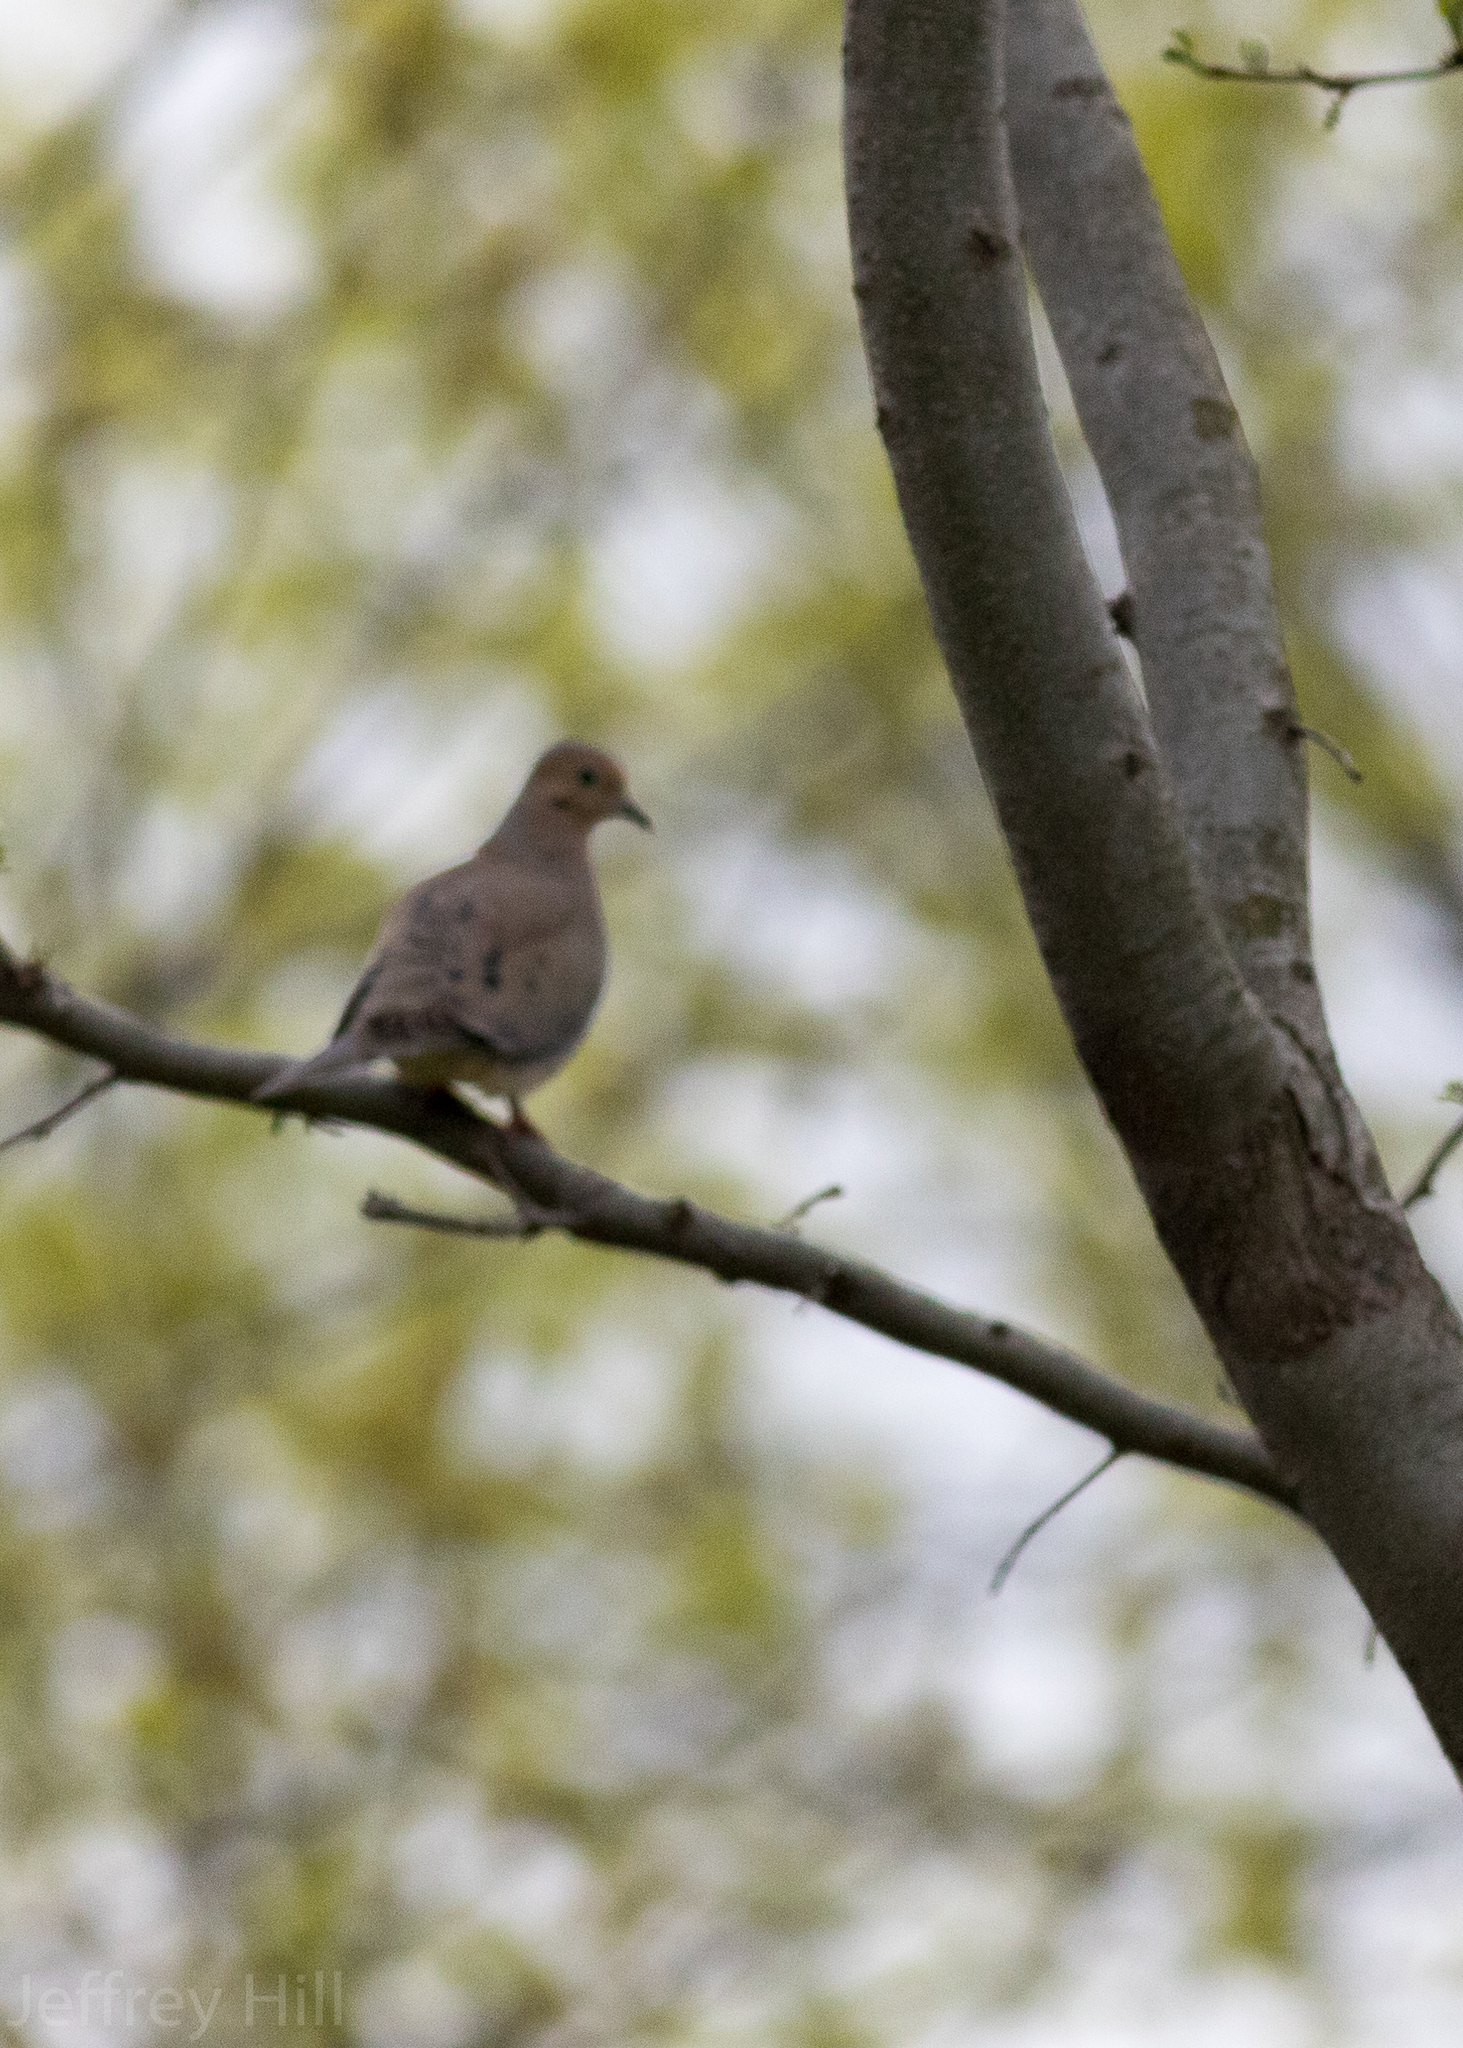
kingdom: Animalia
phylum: Chordata
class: Aves
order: Columbiformes
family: Columbidae
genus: Zenaida
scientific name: Zenaida macroura
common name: Mourning dove
